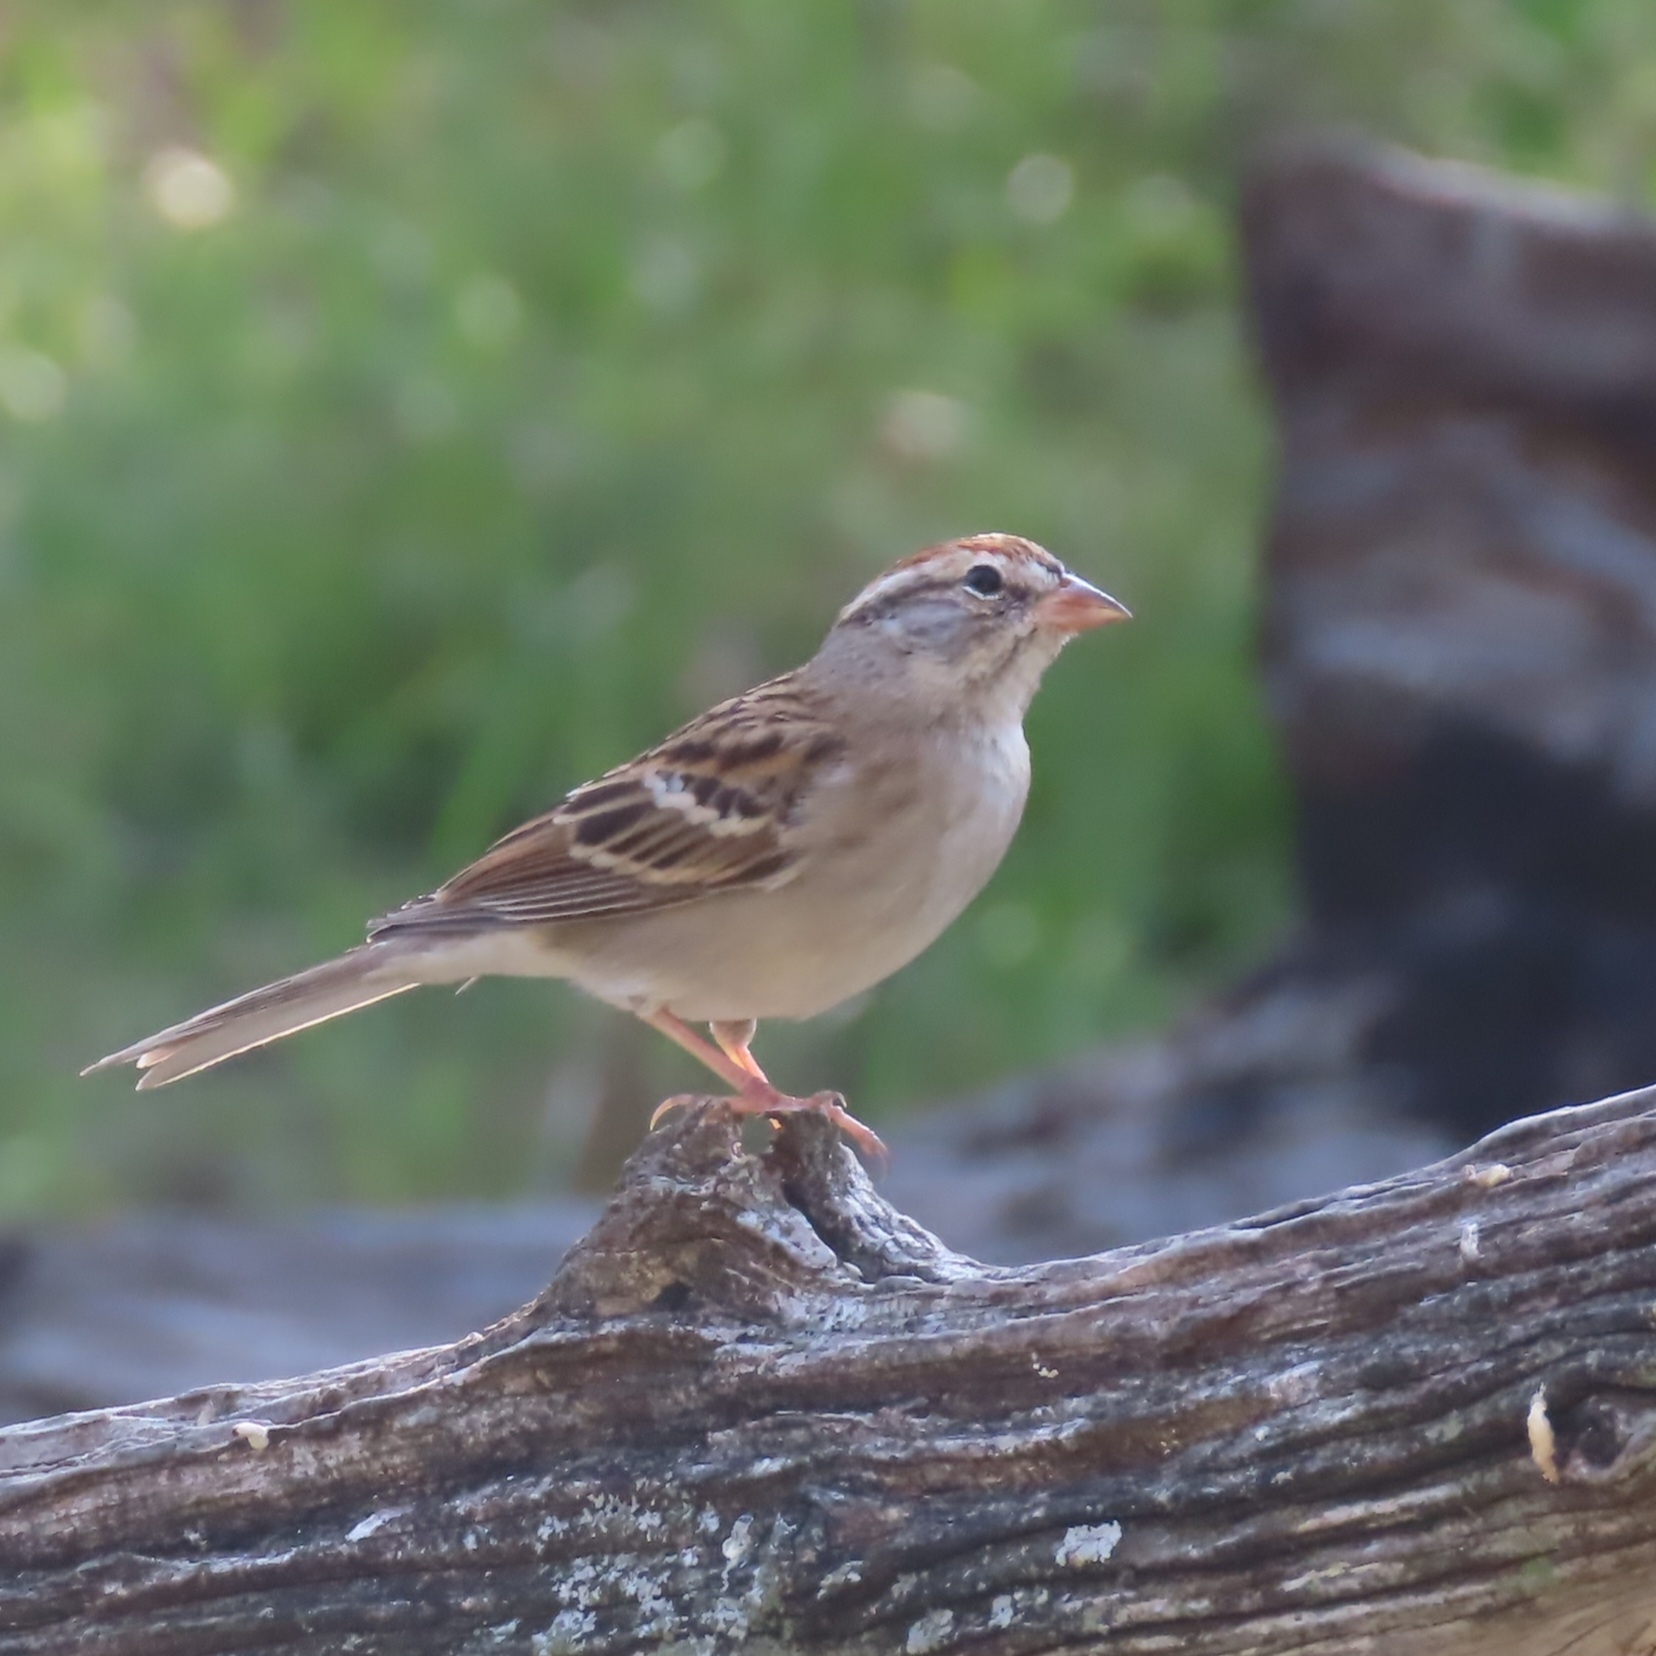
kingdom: Animalia
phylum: Chordata
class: Aves
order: Passeriformes
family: Passerellidae
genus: Spizella
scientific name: Spizella passerina
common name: Chipping sparrow
